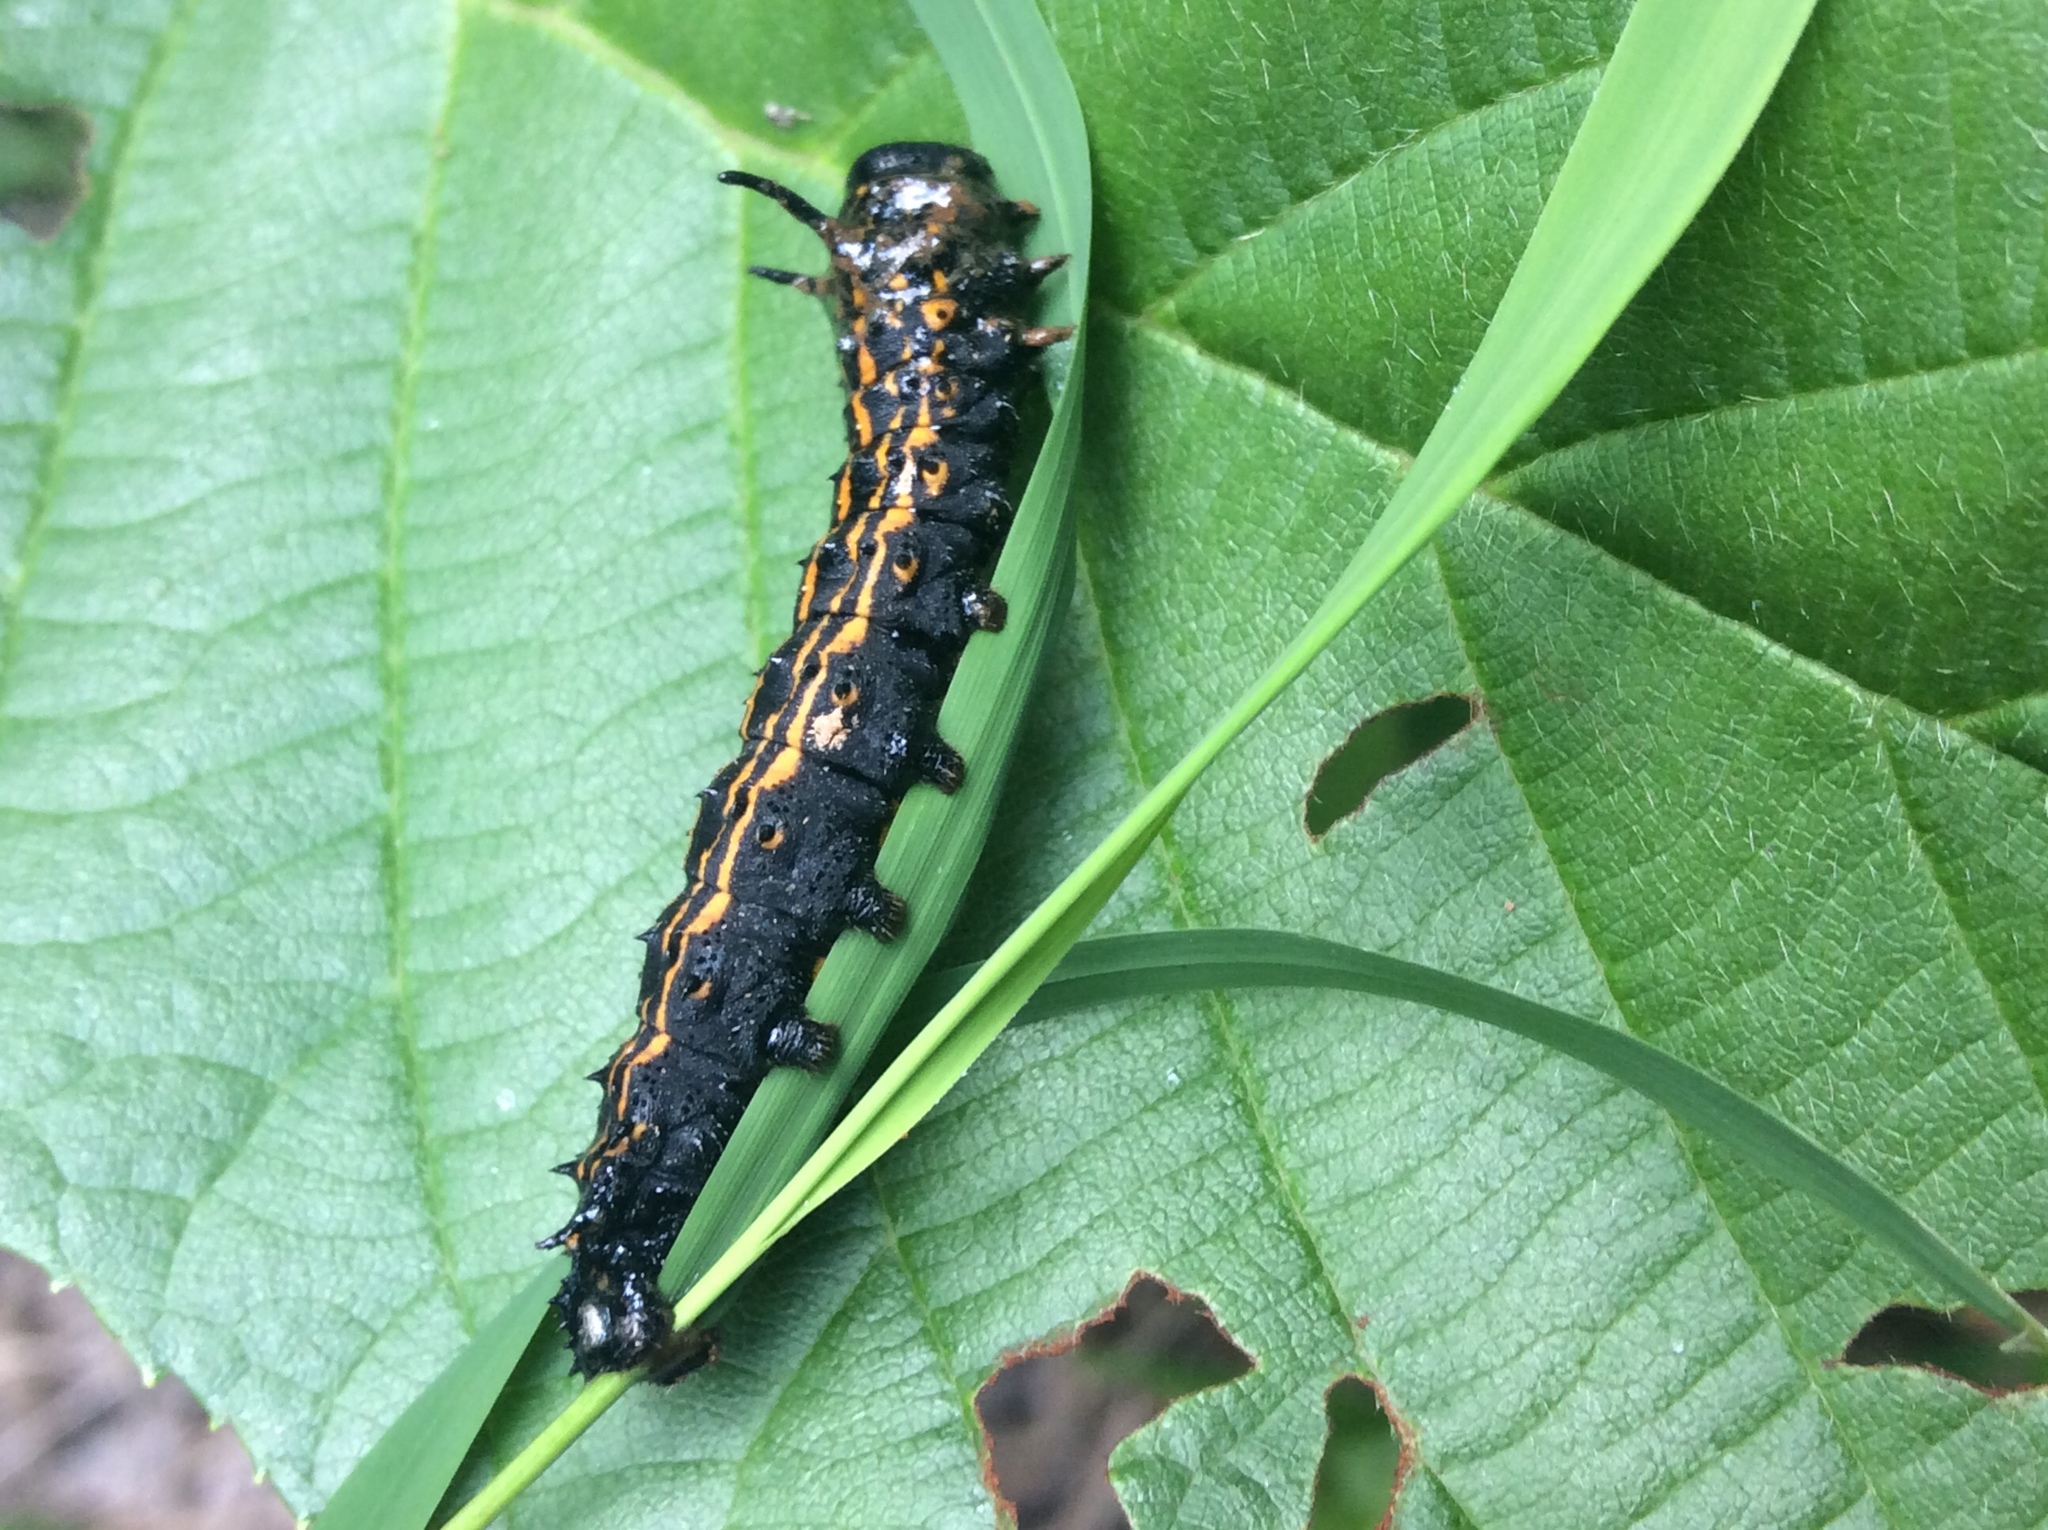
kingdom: Animalia
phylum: Arthropoda
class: Insecta
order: Lepidoptera
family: Saturniidae
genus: Anisota
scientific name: Anisota senatoria
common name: Orange-striped oakworm moth
